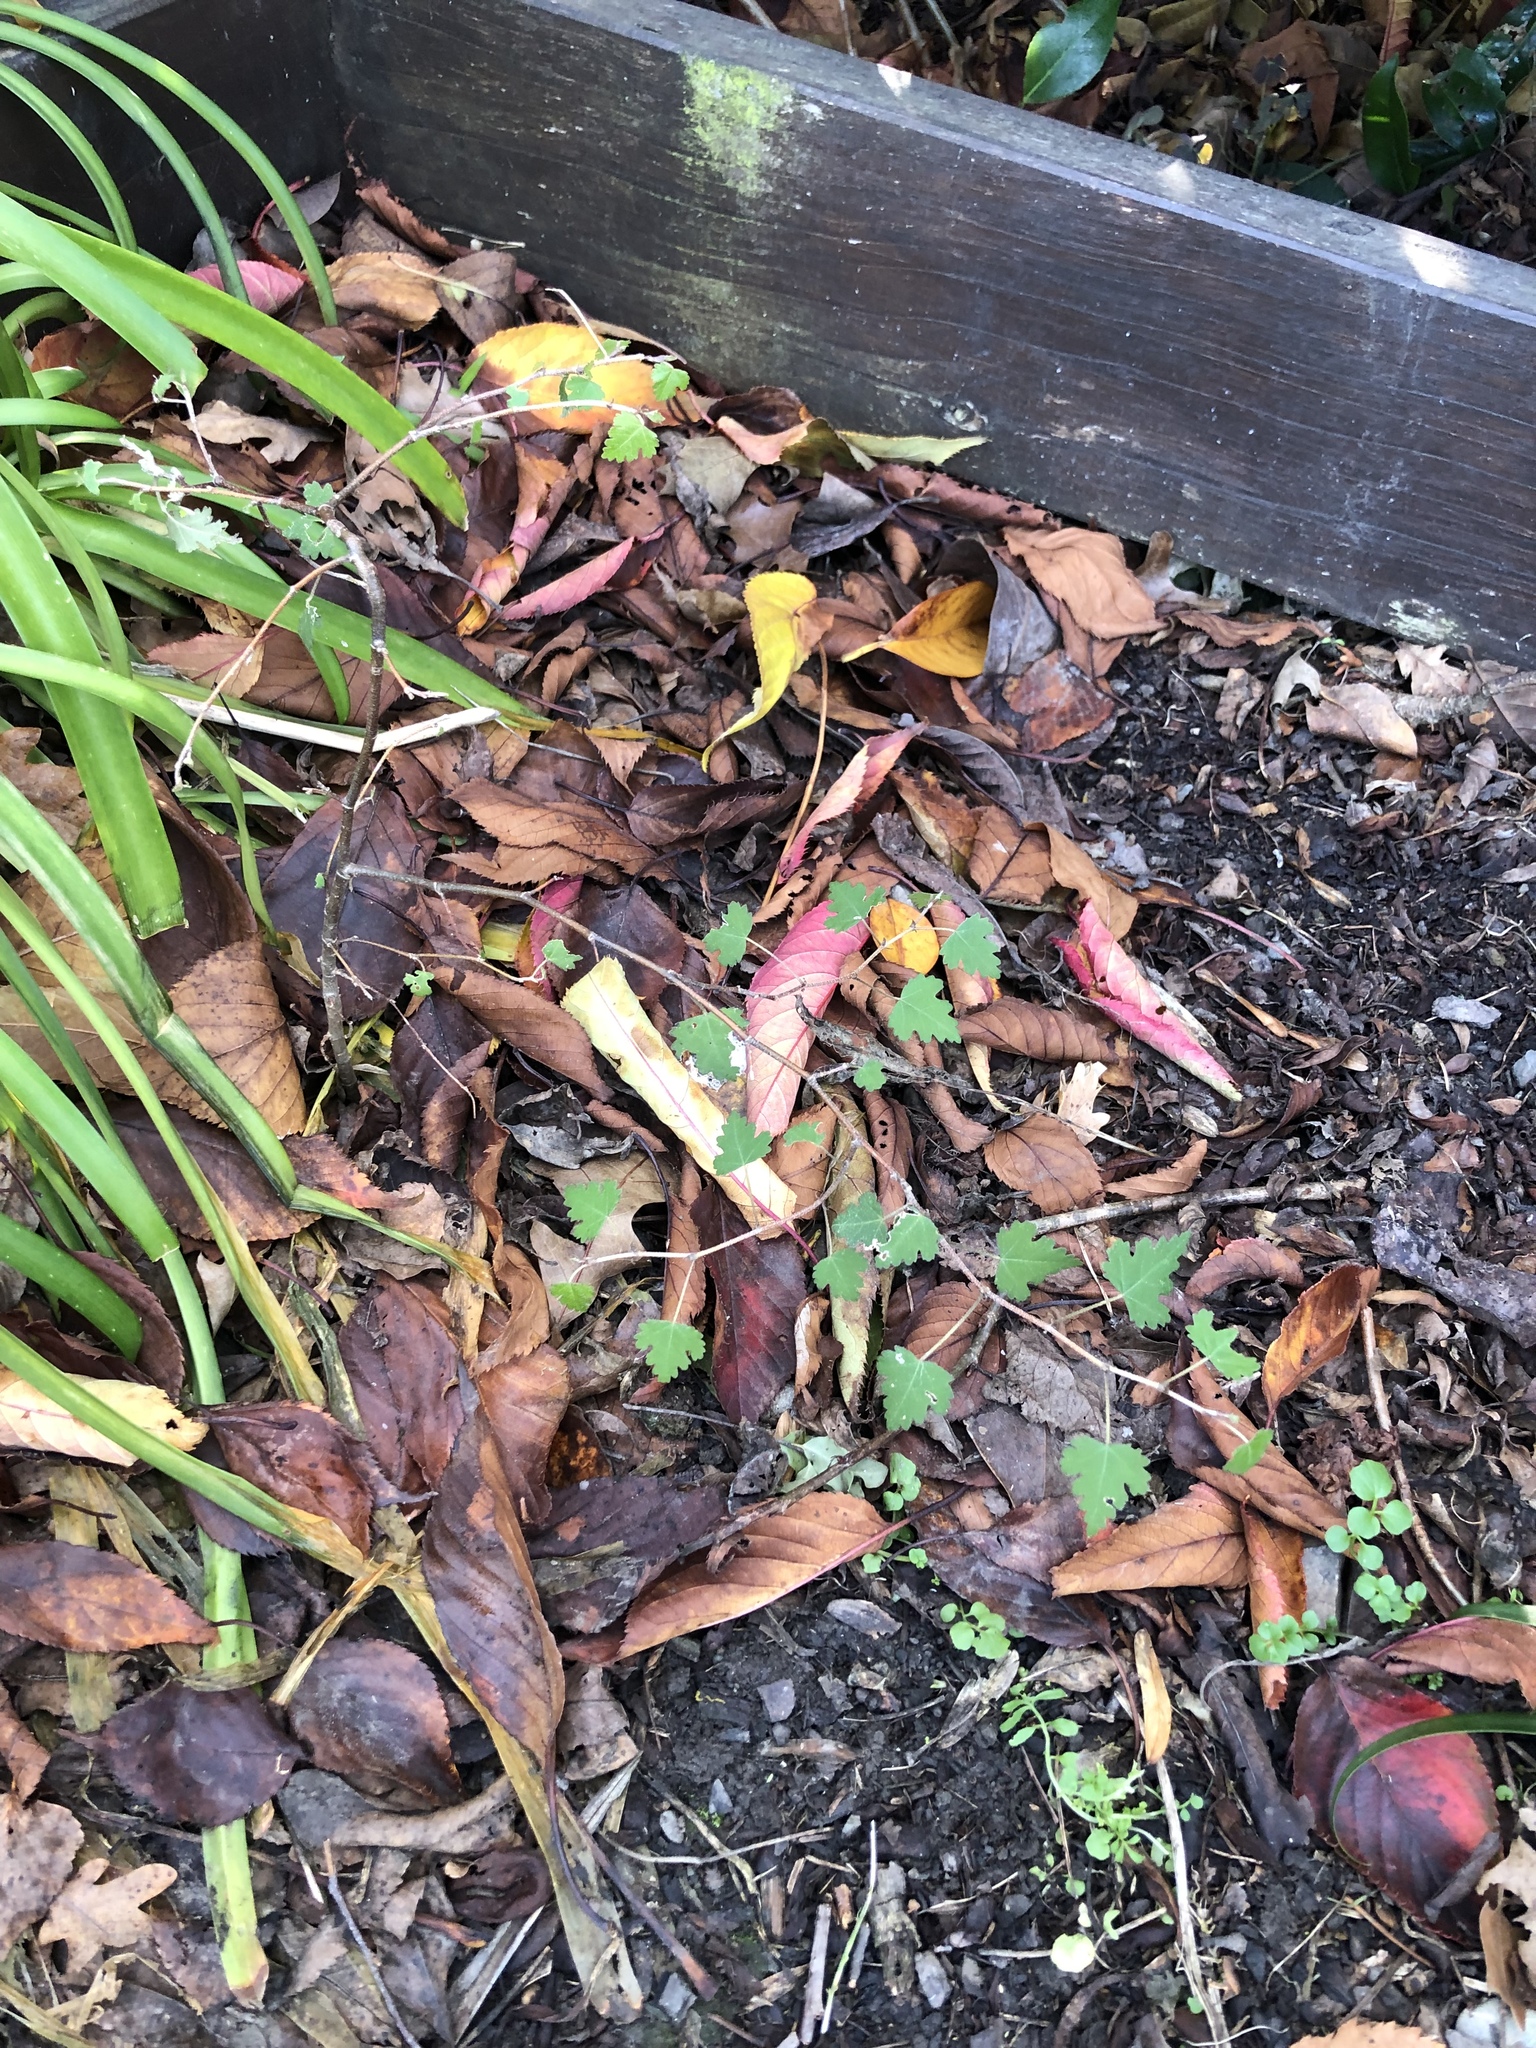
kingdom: Plantae
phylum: Tracheophyta
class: Magnoliopsida
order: Malvales
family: Malvaceae
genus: Plagianthus
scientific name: Plagianthus regius
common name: Manatu
